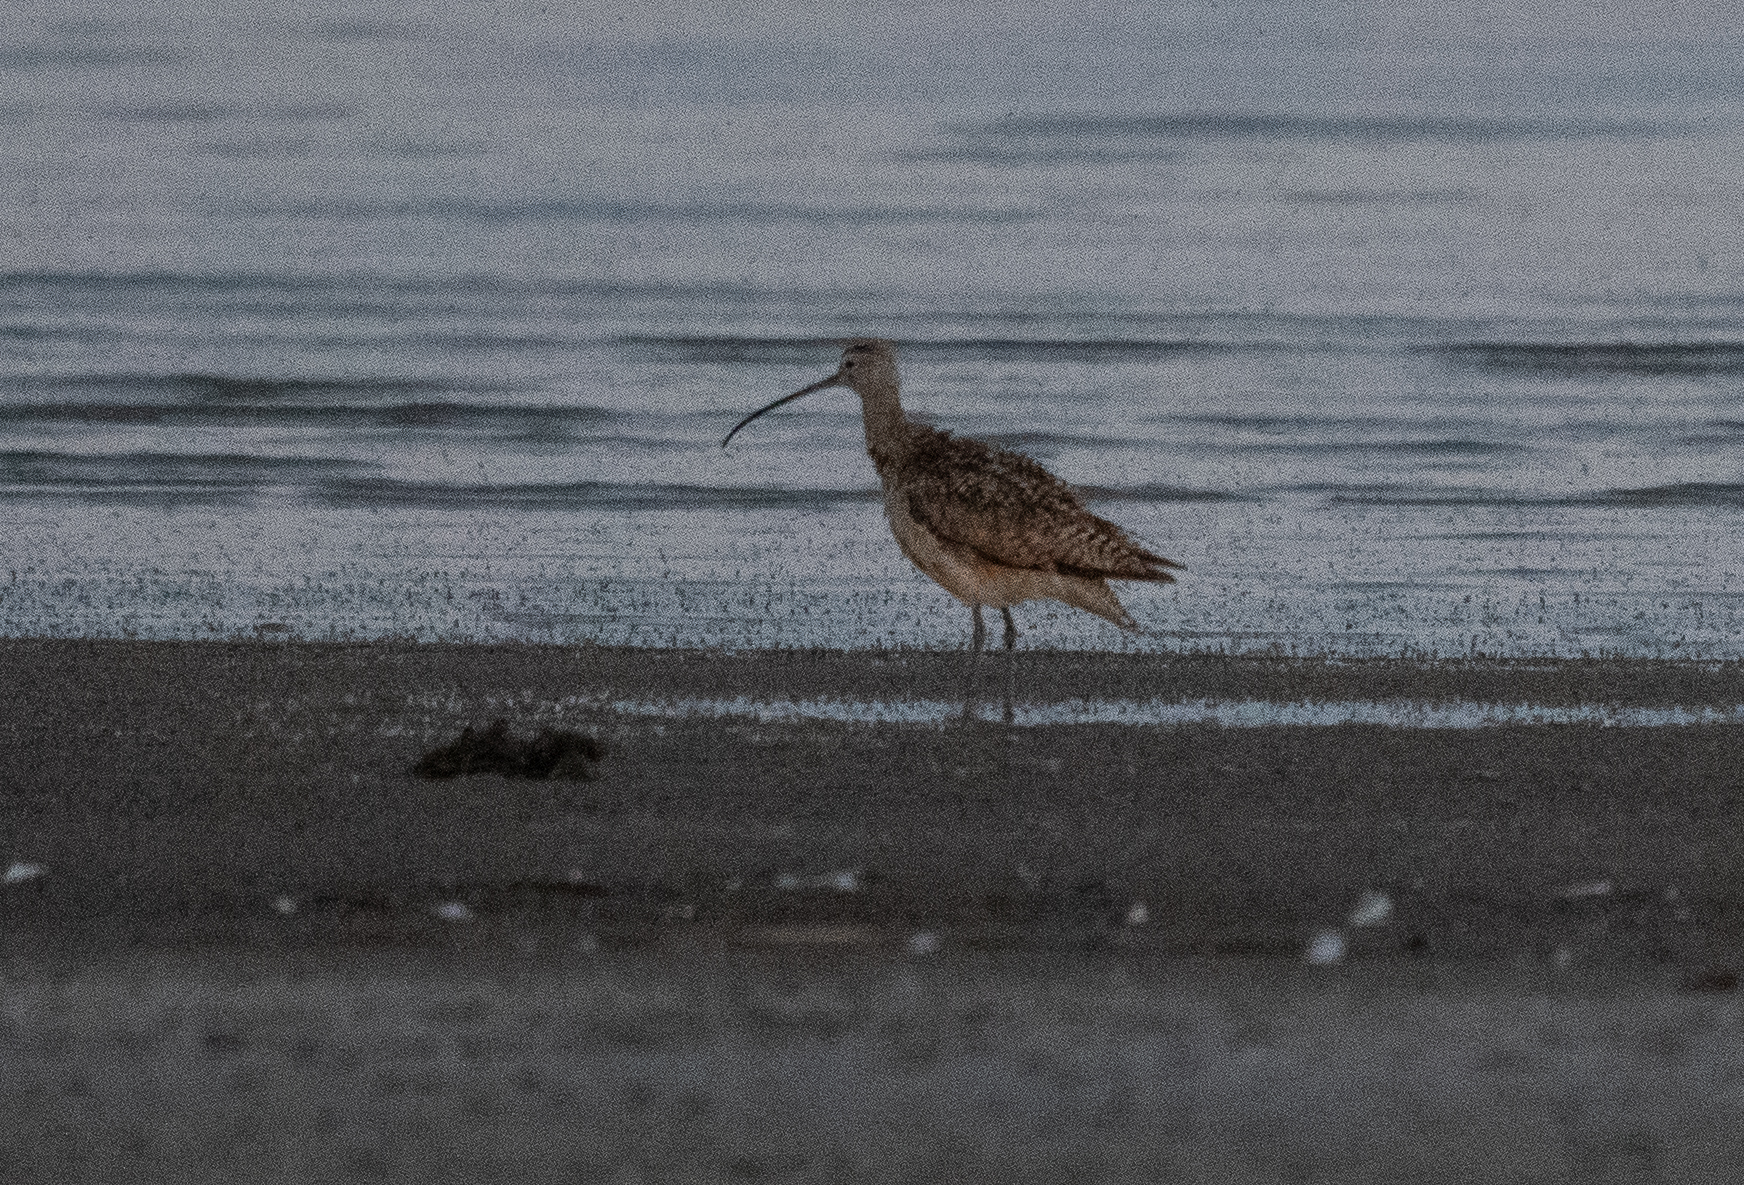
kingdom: Animalia
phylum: Chordata
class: Aves
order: Charadriiformes
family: Scolopacidae
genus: Numenius
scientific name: Numenius americanus
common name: Long-billed curlew
